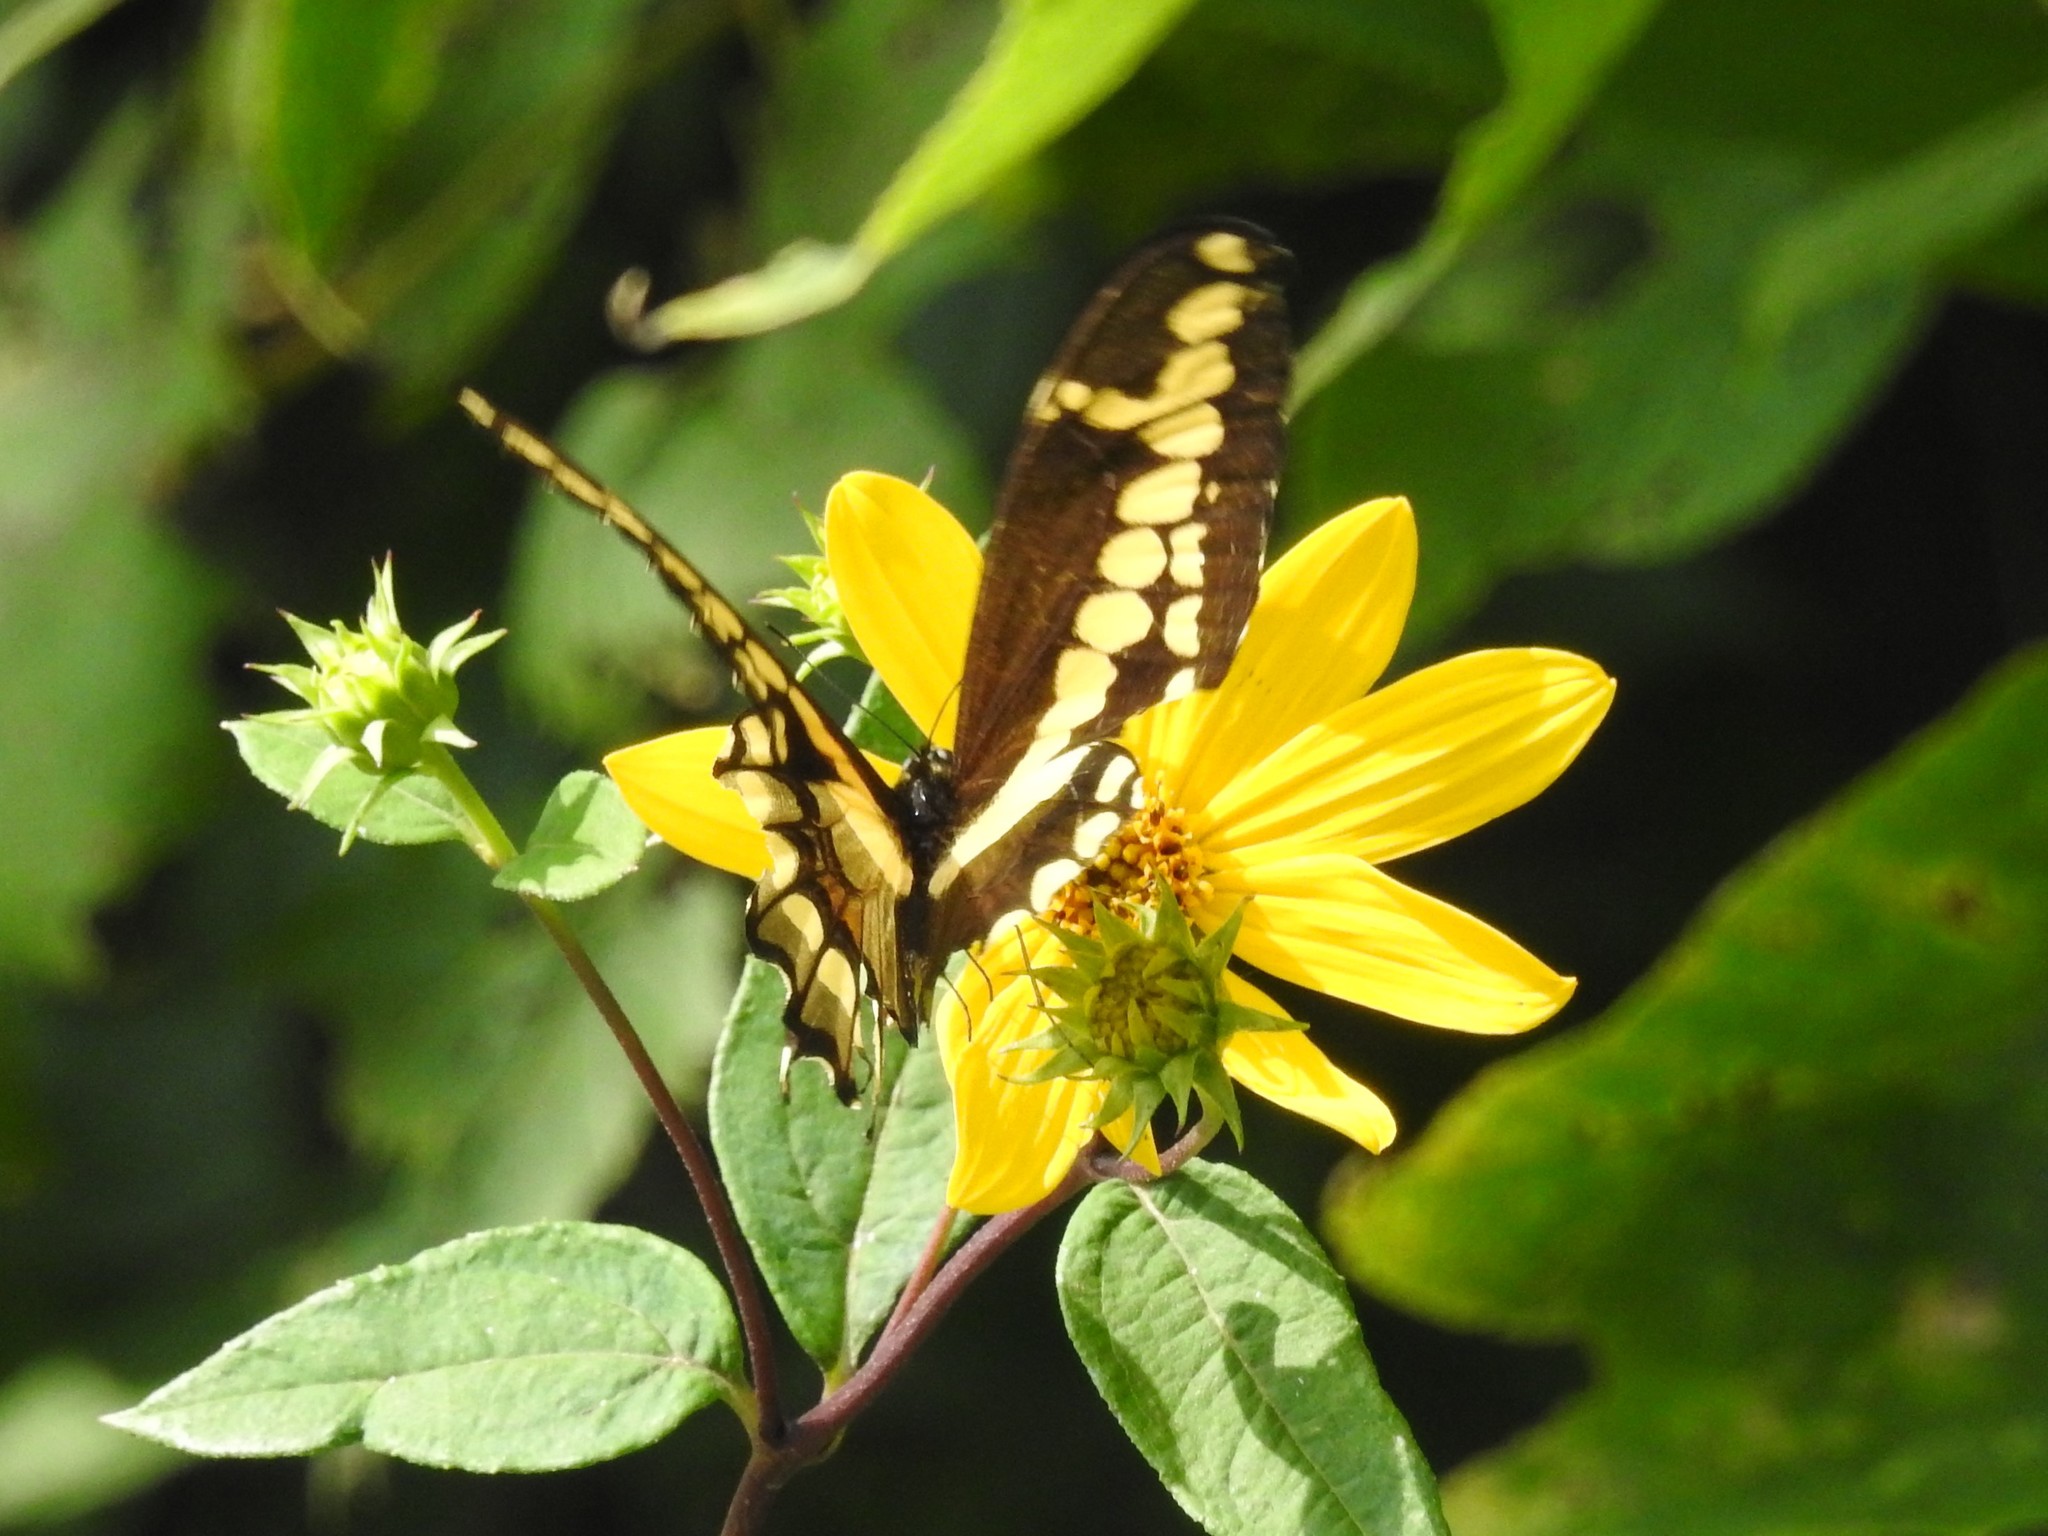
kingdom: Animalia
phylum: Arthropoda
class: Insecta
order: Lepidoptera
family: Papilionidae
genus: Papilio
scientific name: Papilio cresphontes
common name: Giant swallowtail
